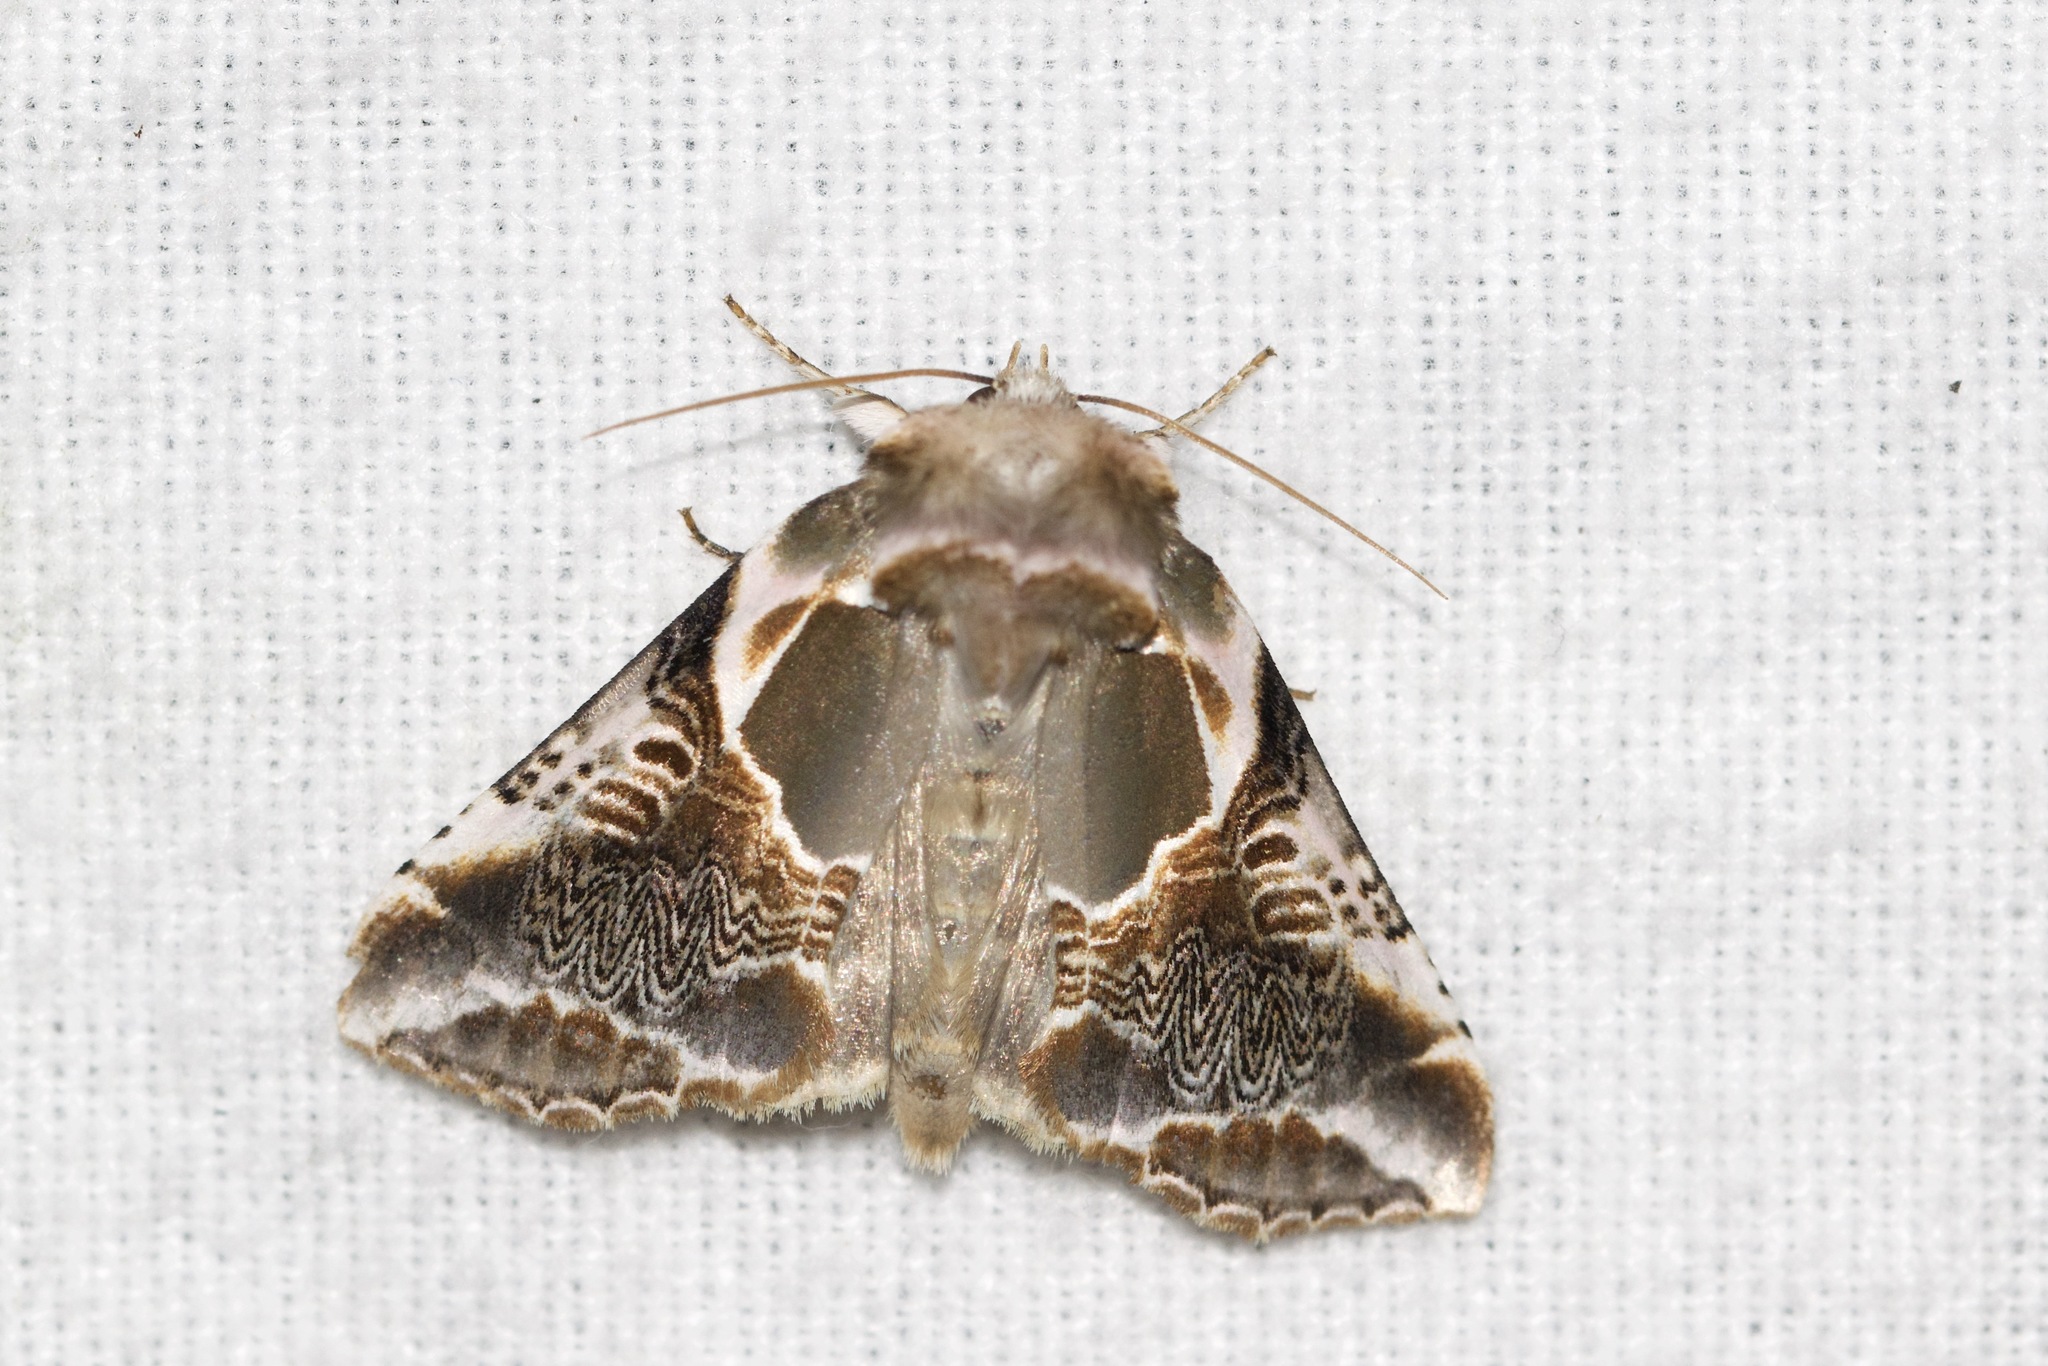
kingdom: Animalia
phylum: Arthropoda
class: Insecta
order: Lepidoptera
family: Drepanidae
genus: Habrosyne
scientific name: Habrosyne scripta
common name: Lettered habrosyne moth
